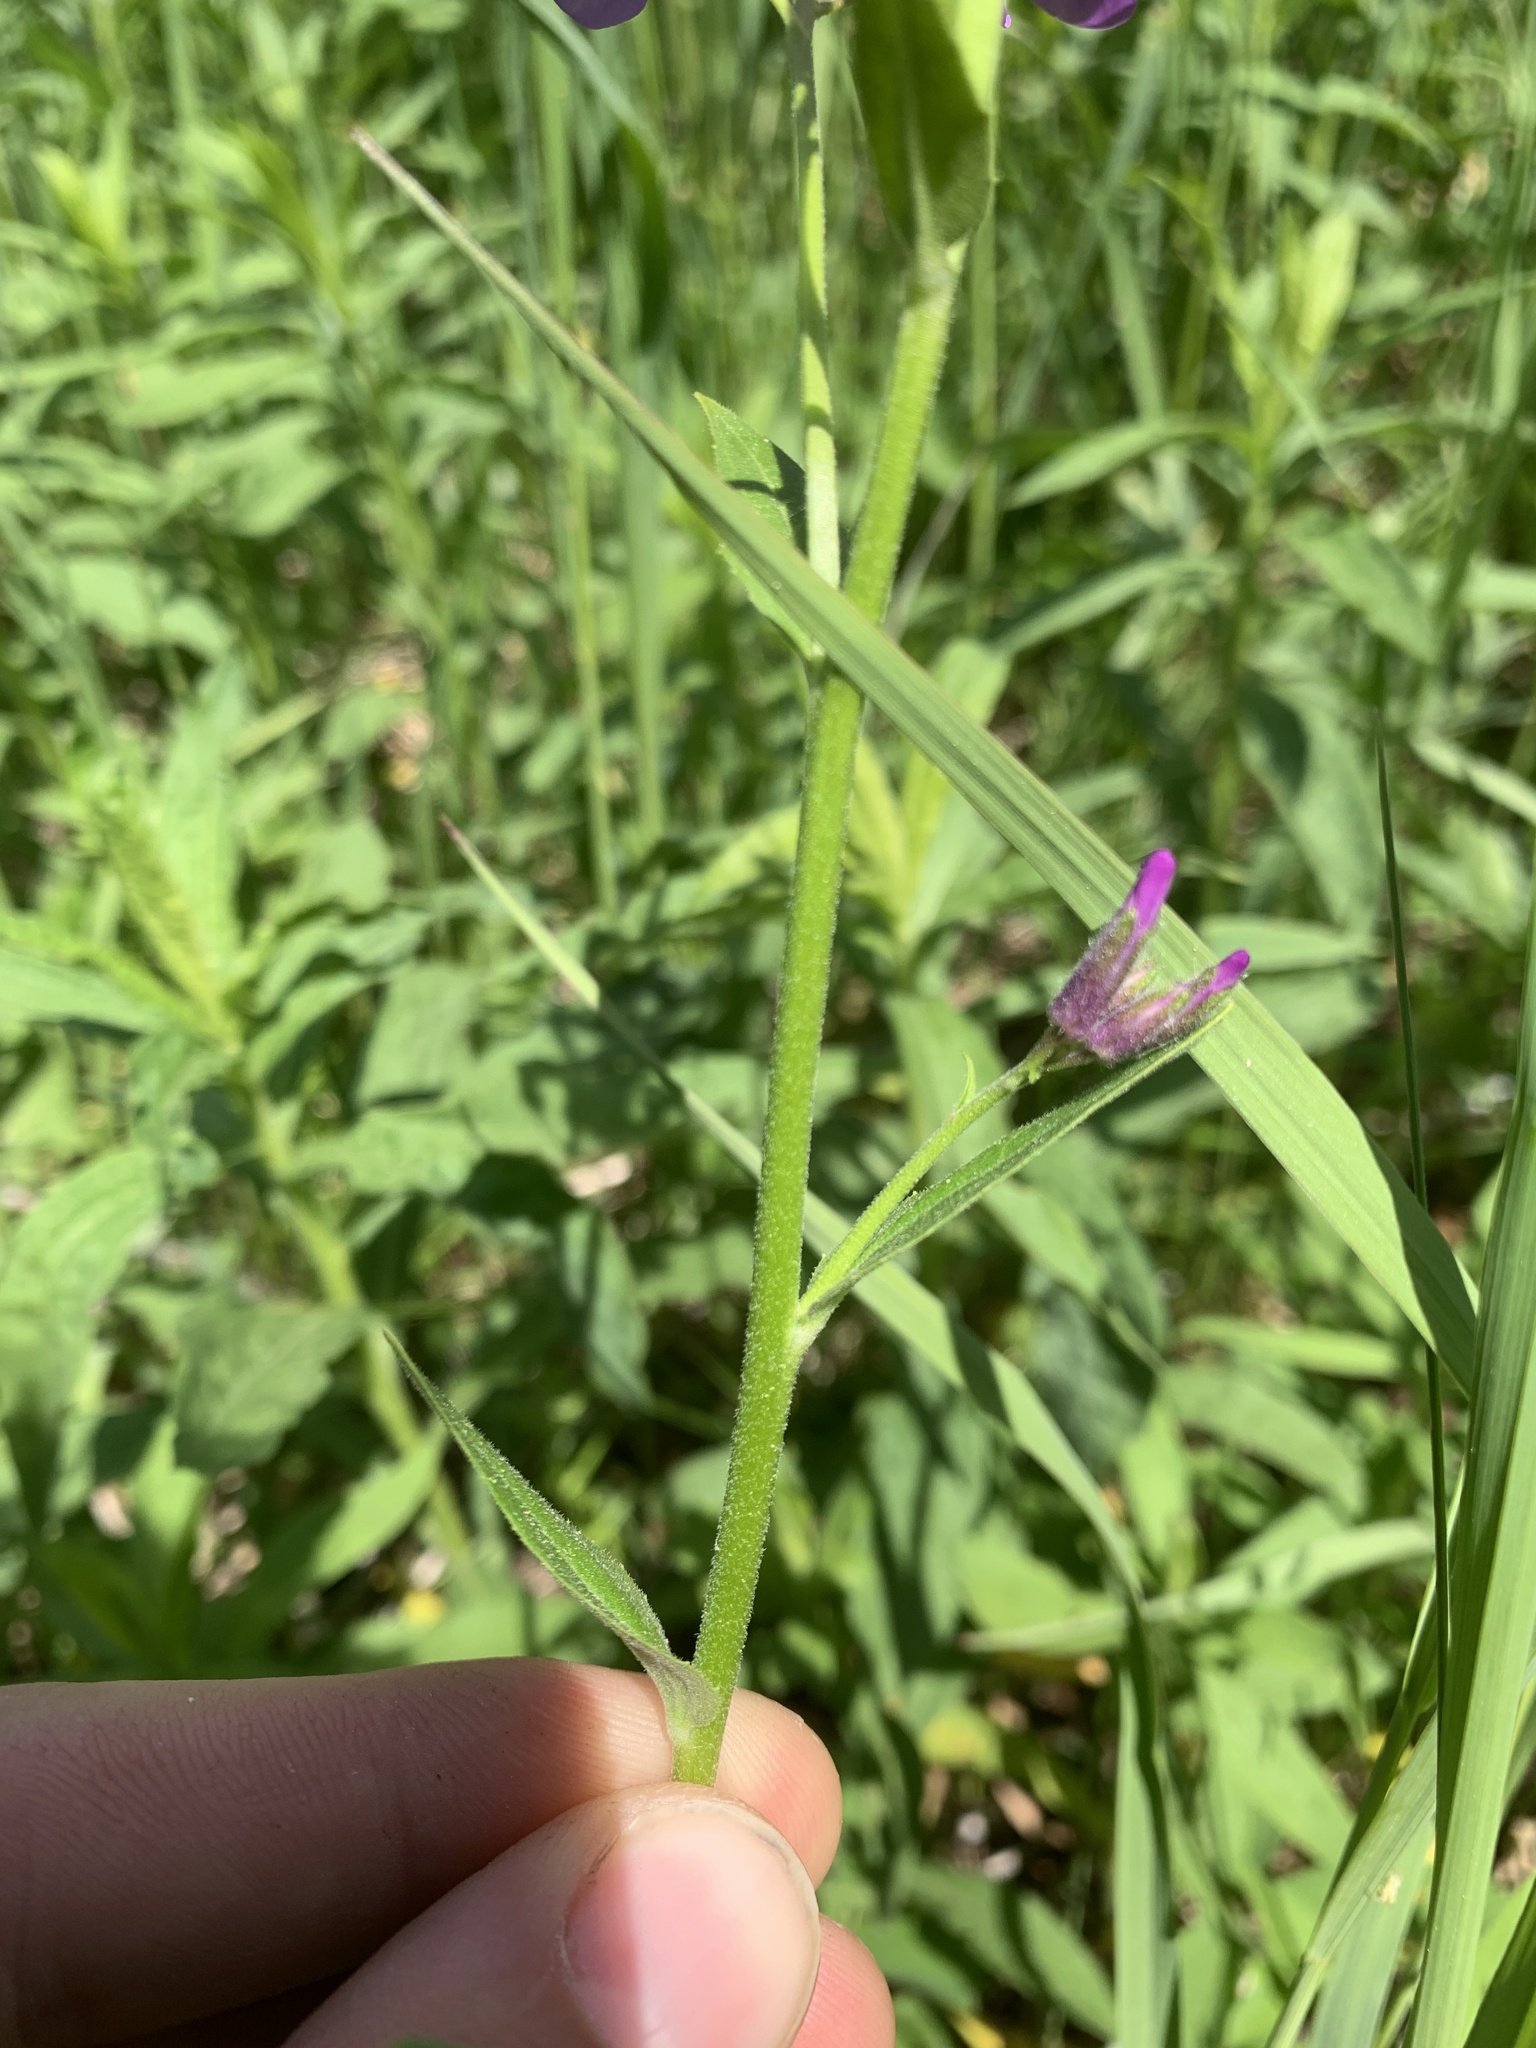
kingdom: Plantae
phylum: Tracheophyta
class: Magnoliopsida
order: Brassicales
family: Brassicaceae
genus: Hesperis
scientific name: Hesperis matronalis
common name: Dame's-violet
